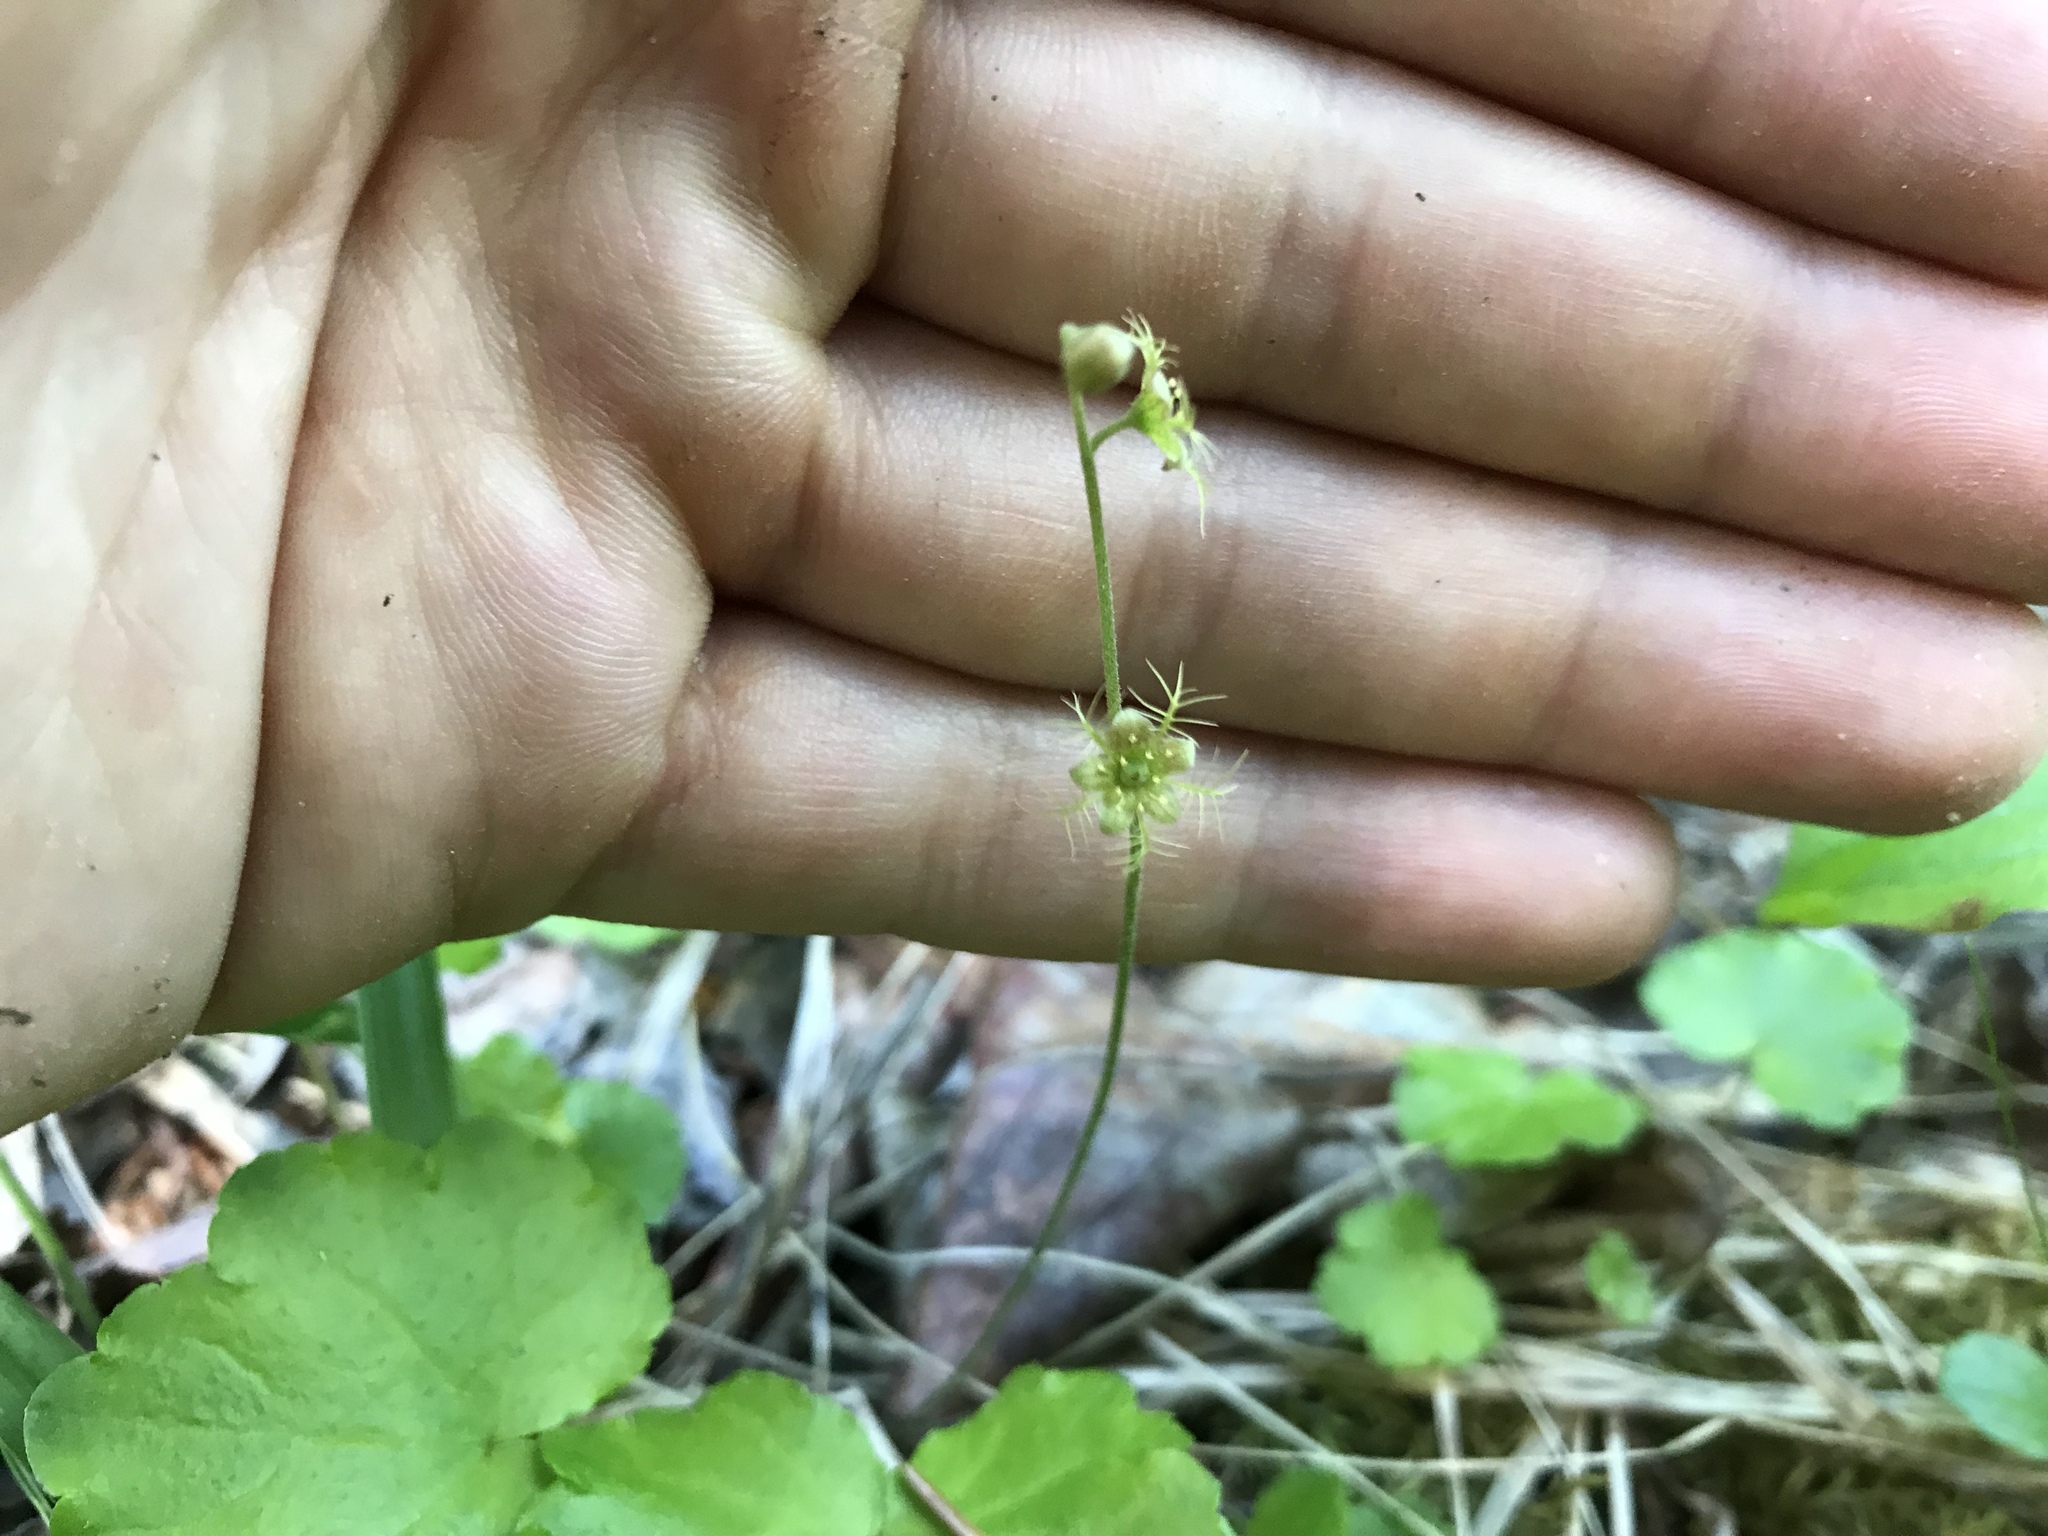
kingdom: Plantae
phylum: Tracheophyta
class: Magnoliopsida
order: Saxifragales
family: Saxifragaceae
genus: Mitella
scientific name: Mitella nuda
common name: Bare-stemmed bishop's-cap
